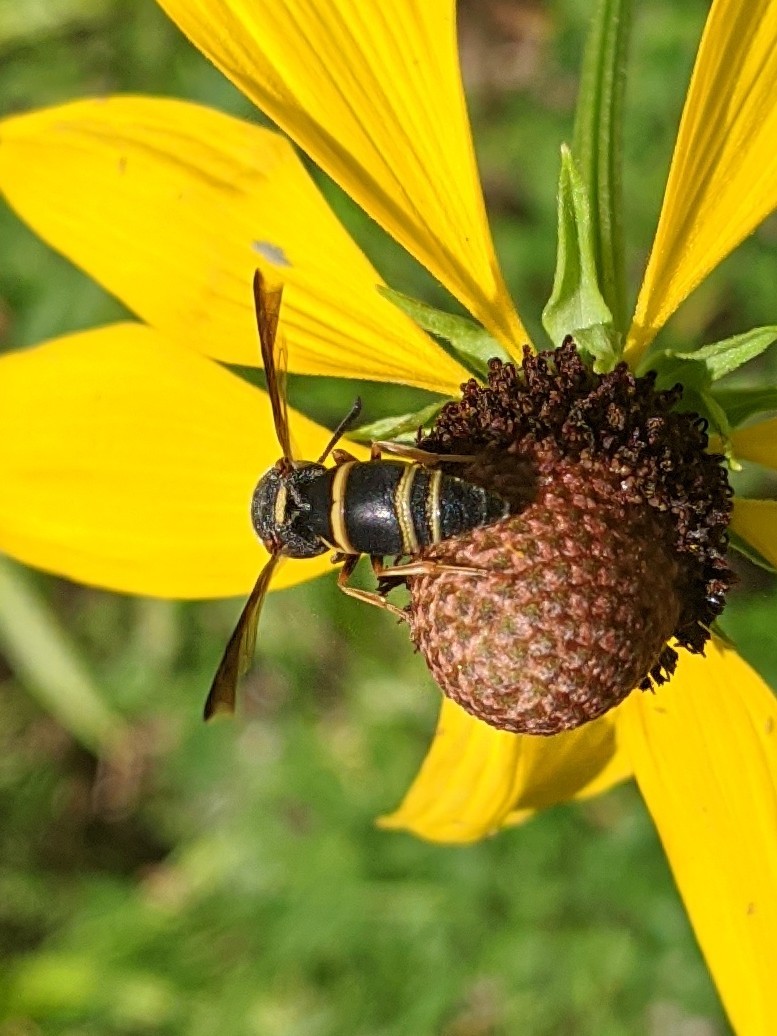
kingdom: Animalia
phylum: Arthropoda
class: Insecta
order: Hymenoptera
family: Eumenidae
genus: Euodynerus
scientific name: Euodynerus hidalgo
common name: Wasp
